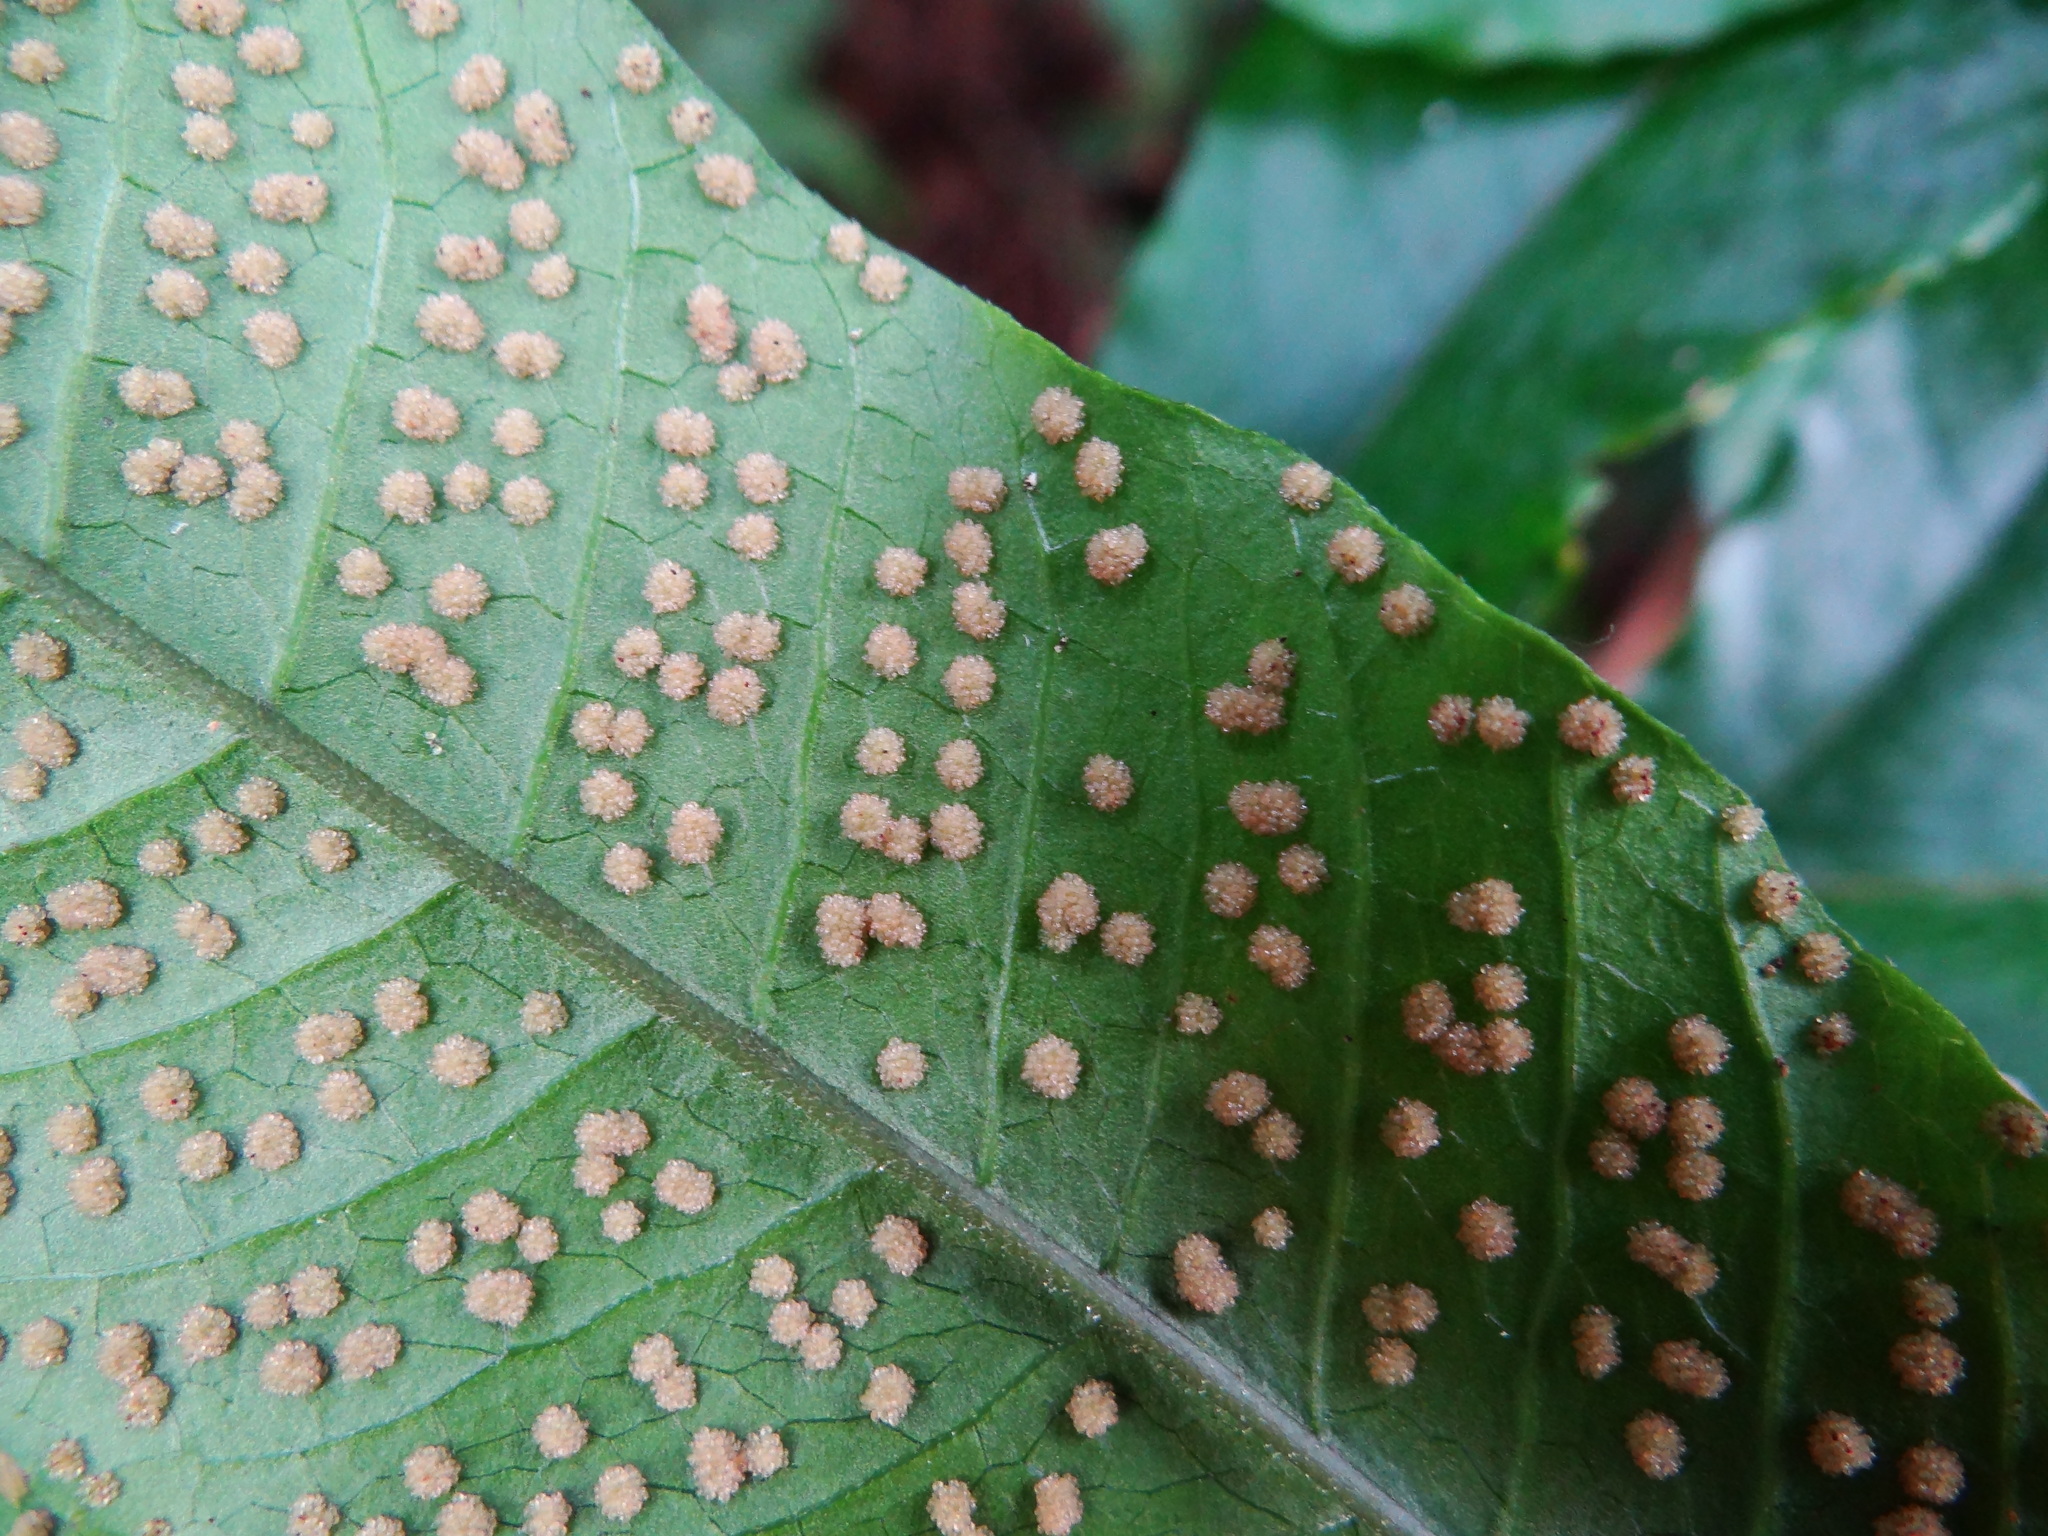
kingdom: Plantae
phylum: Tracheophyta
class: Polypodiopsida
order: Polypodiales
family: Tectariaceae
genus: Tectaria
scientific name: Tectaria simonsii
